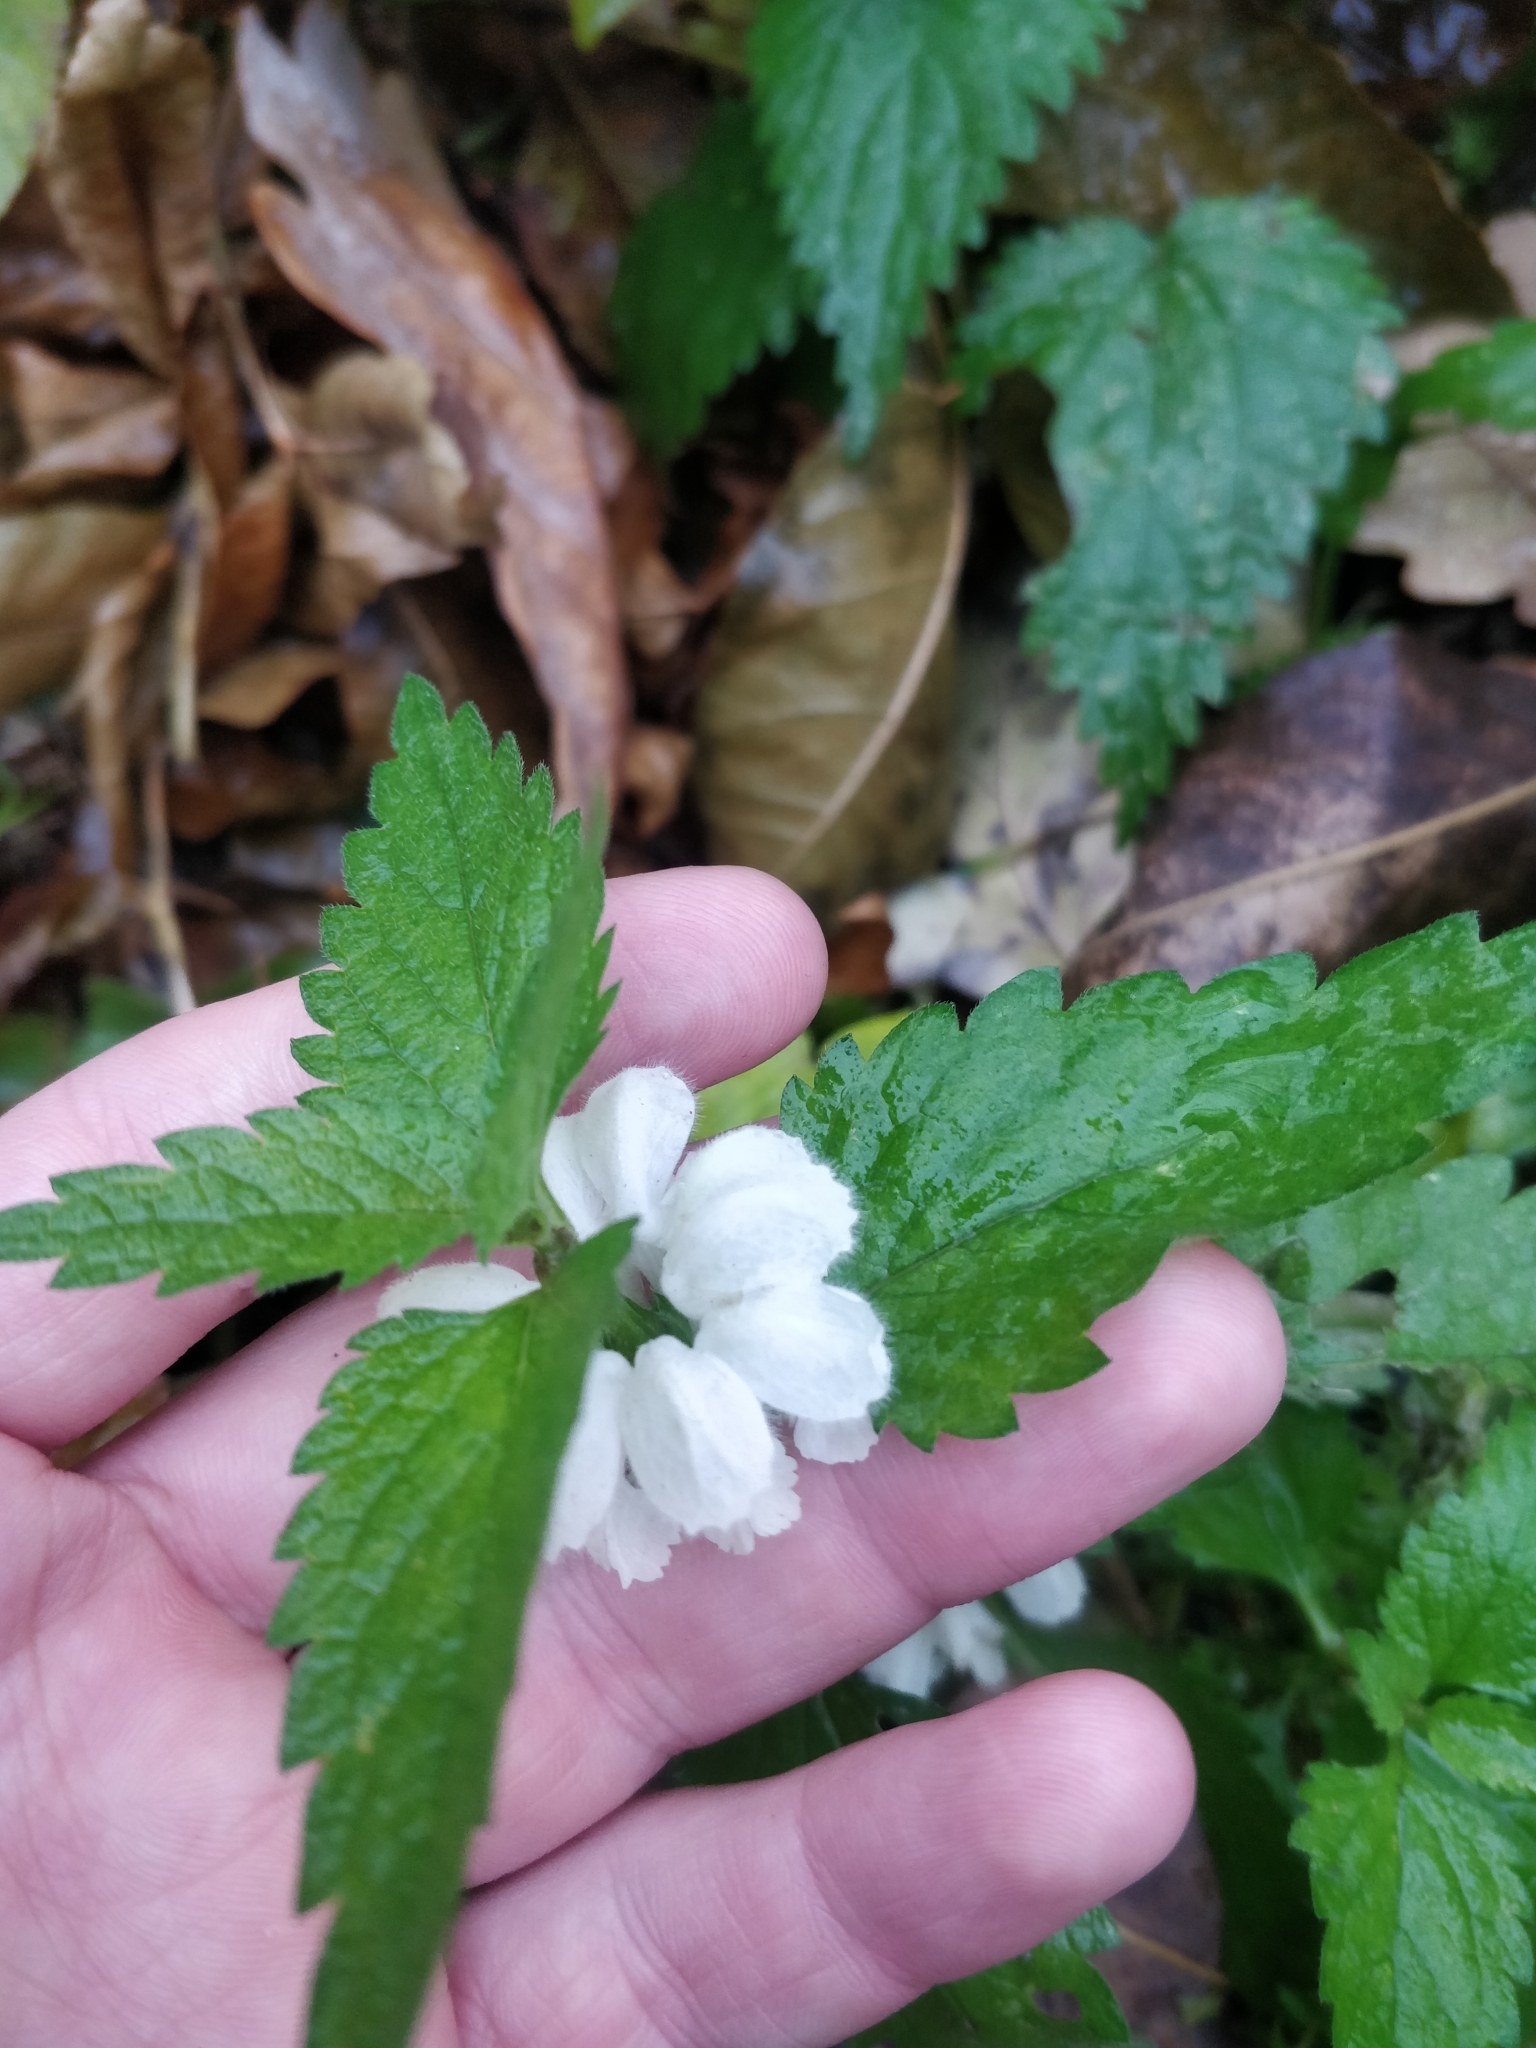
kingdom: Plantae
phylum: Tracheophyta
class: Magnoliopsida
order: Lamiales
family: Lamiaceae
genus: Lamium
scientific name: Lamium album
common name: White dead-nettle
